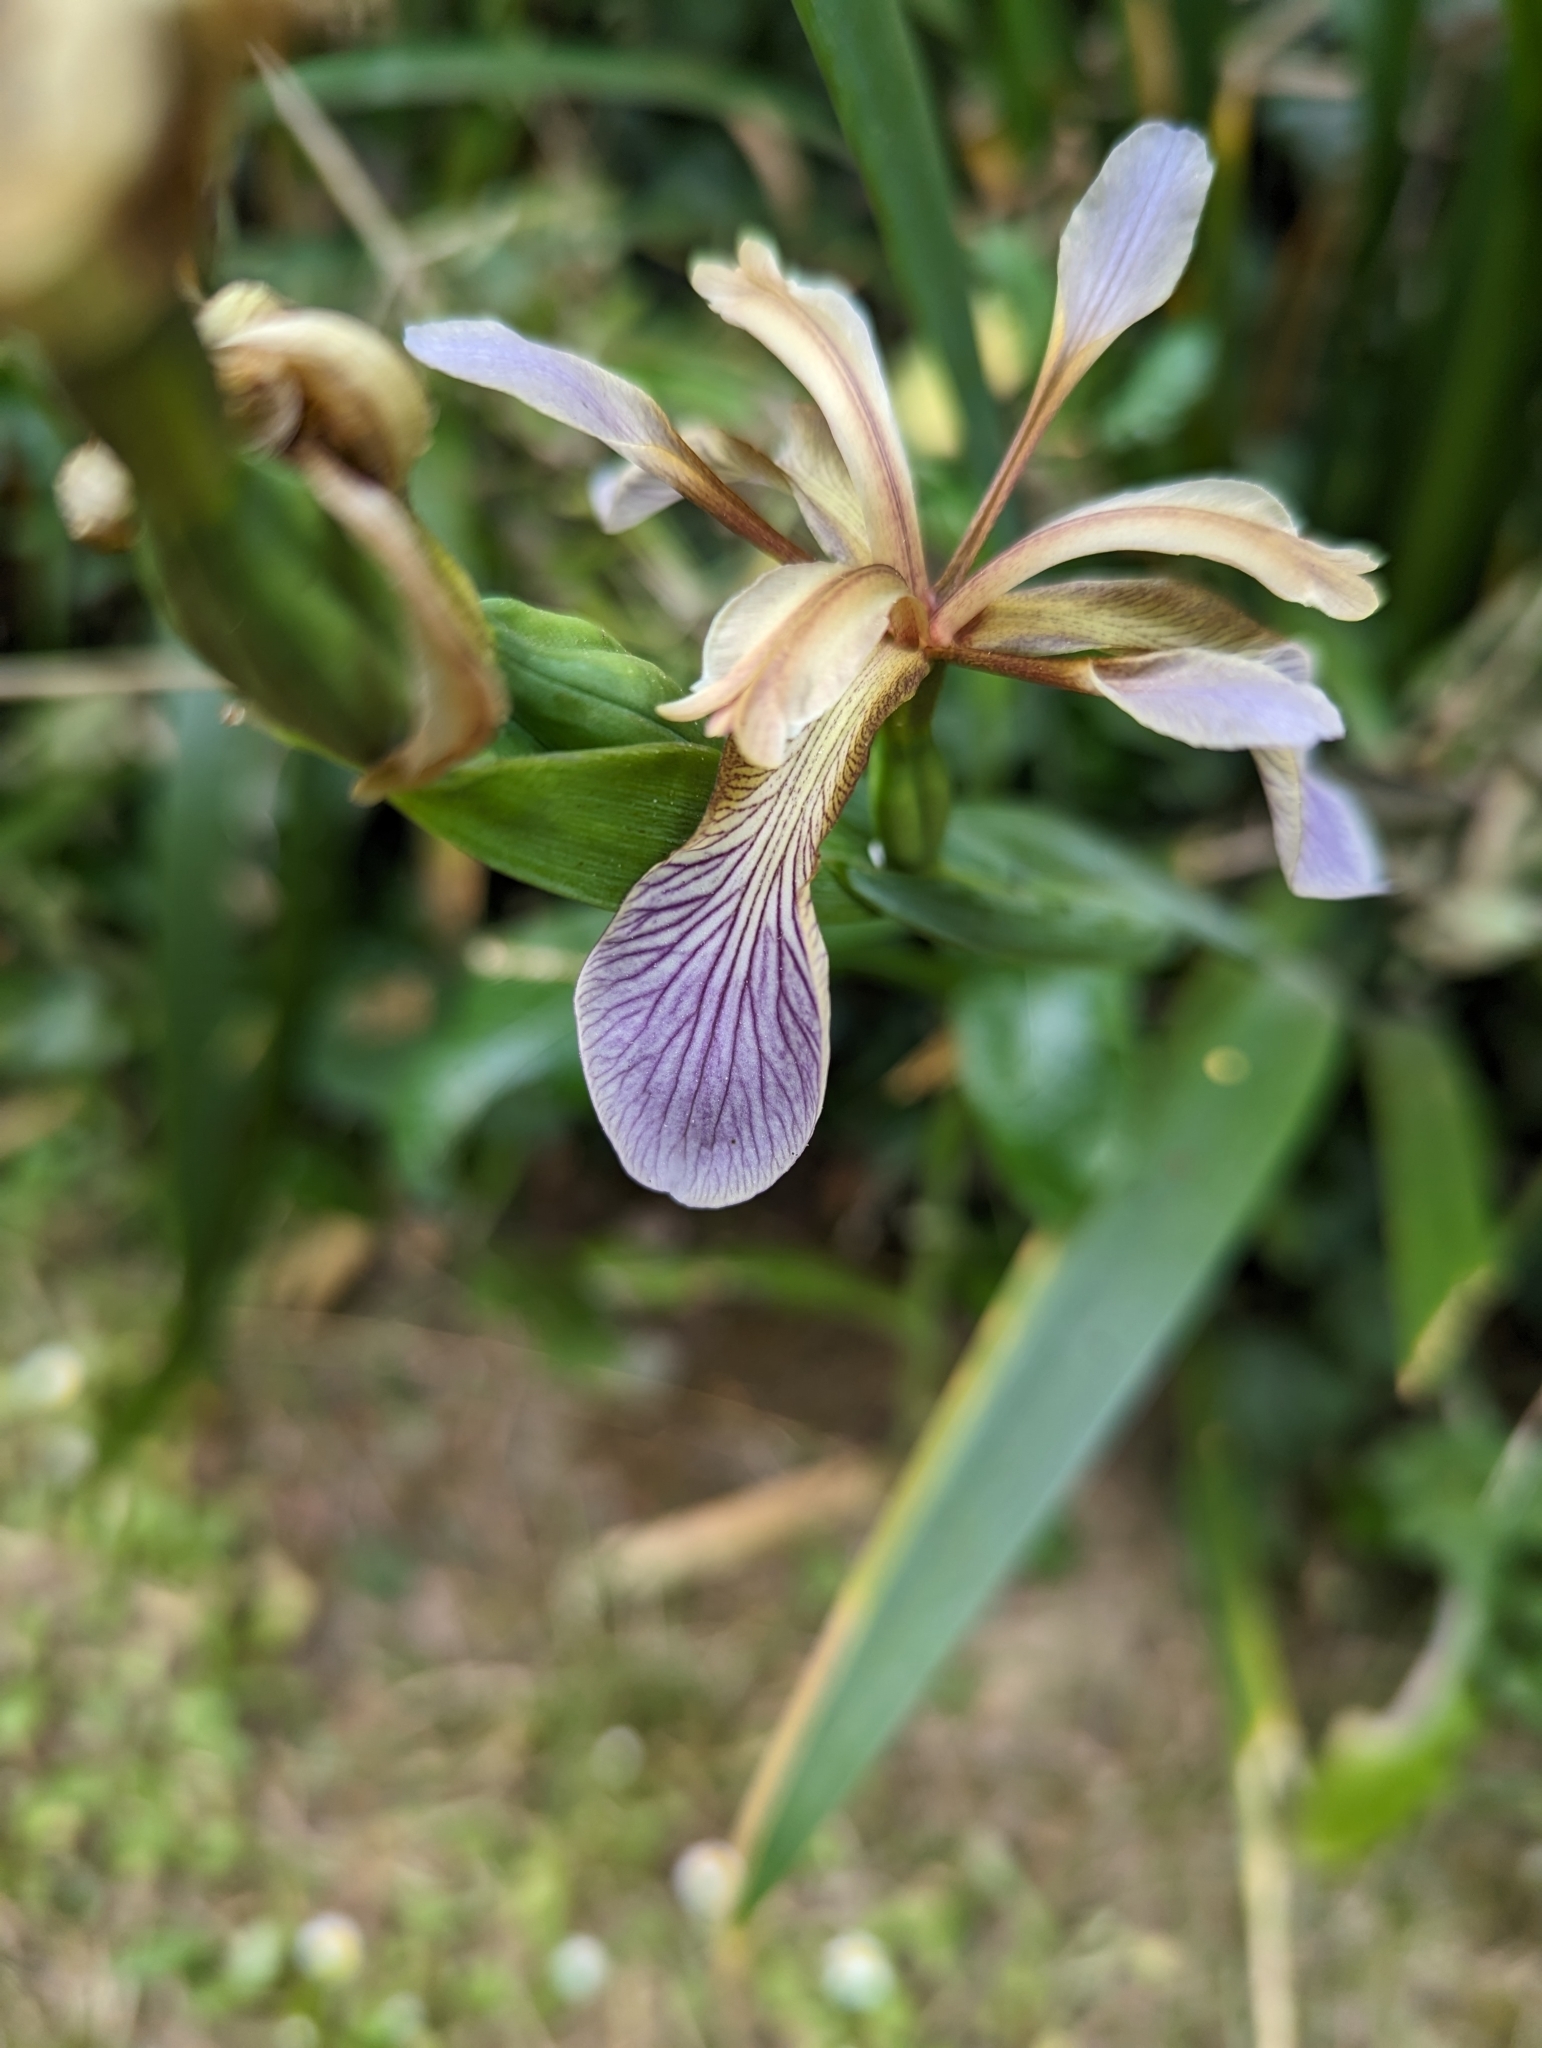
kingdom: Plantae
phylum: Tracheophyta
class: Liliopsida
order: Asparagales
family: Iridaceae
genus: Iris
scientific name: Iris foetidissima
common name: Stinking iris
